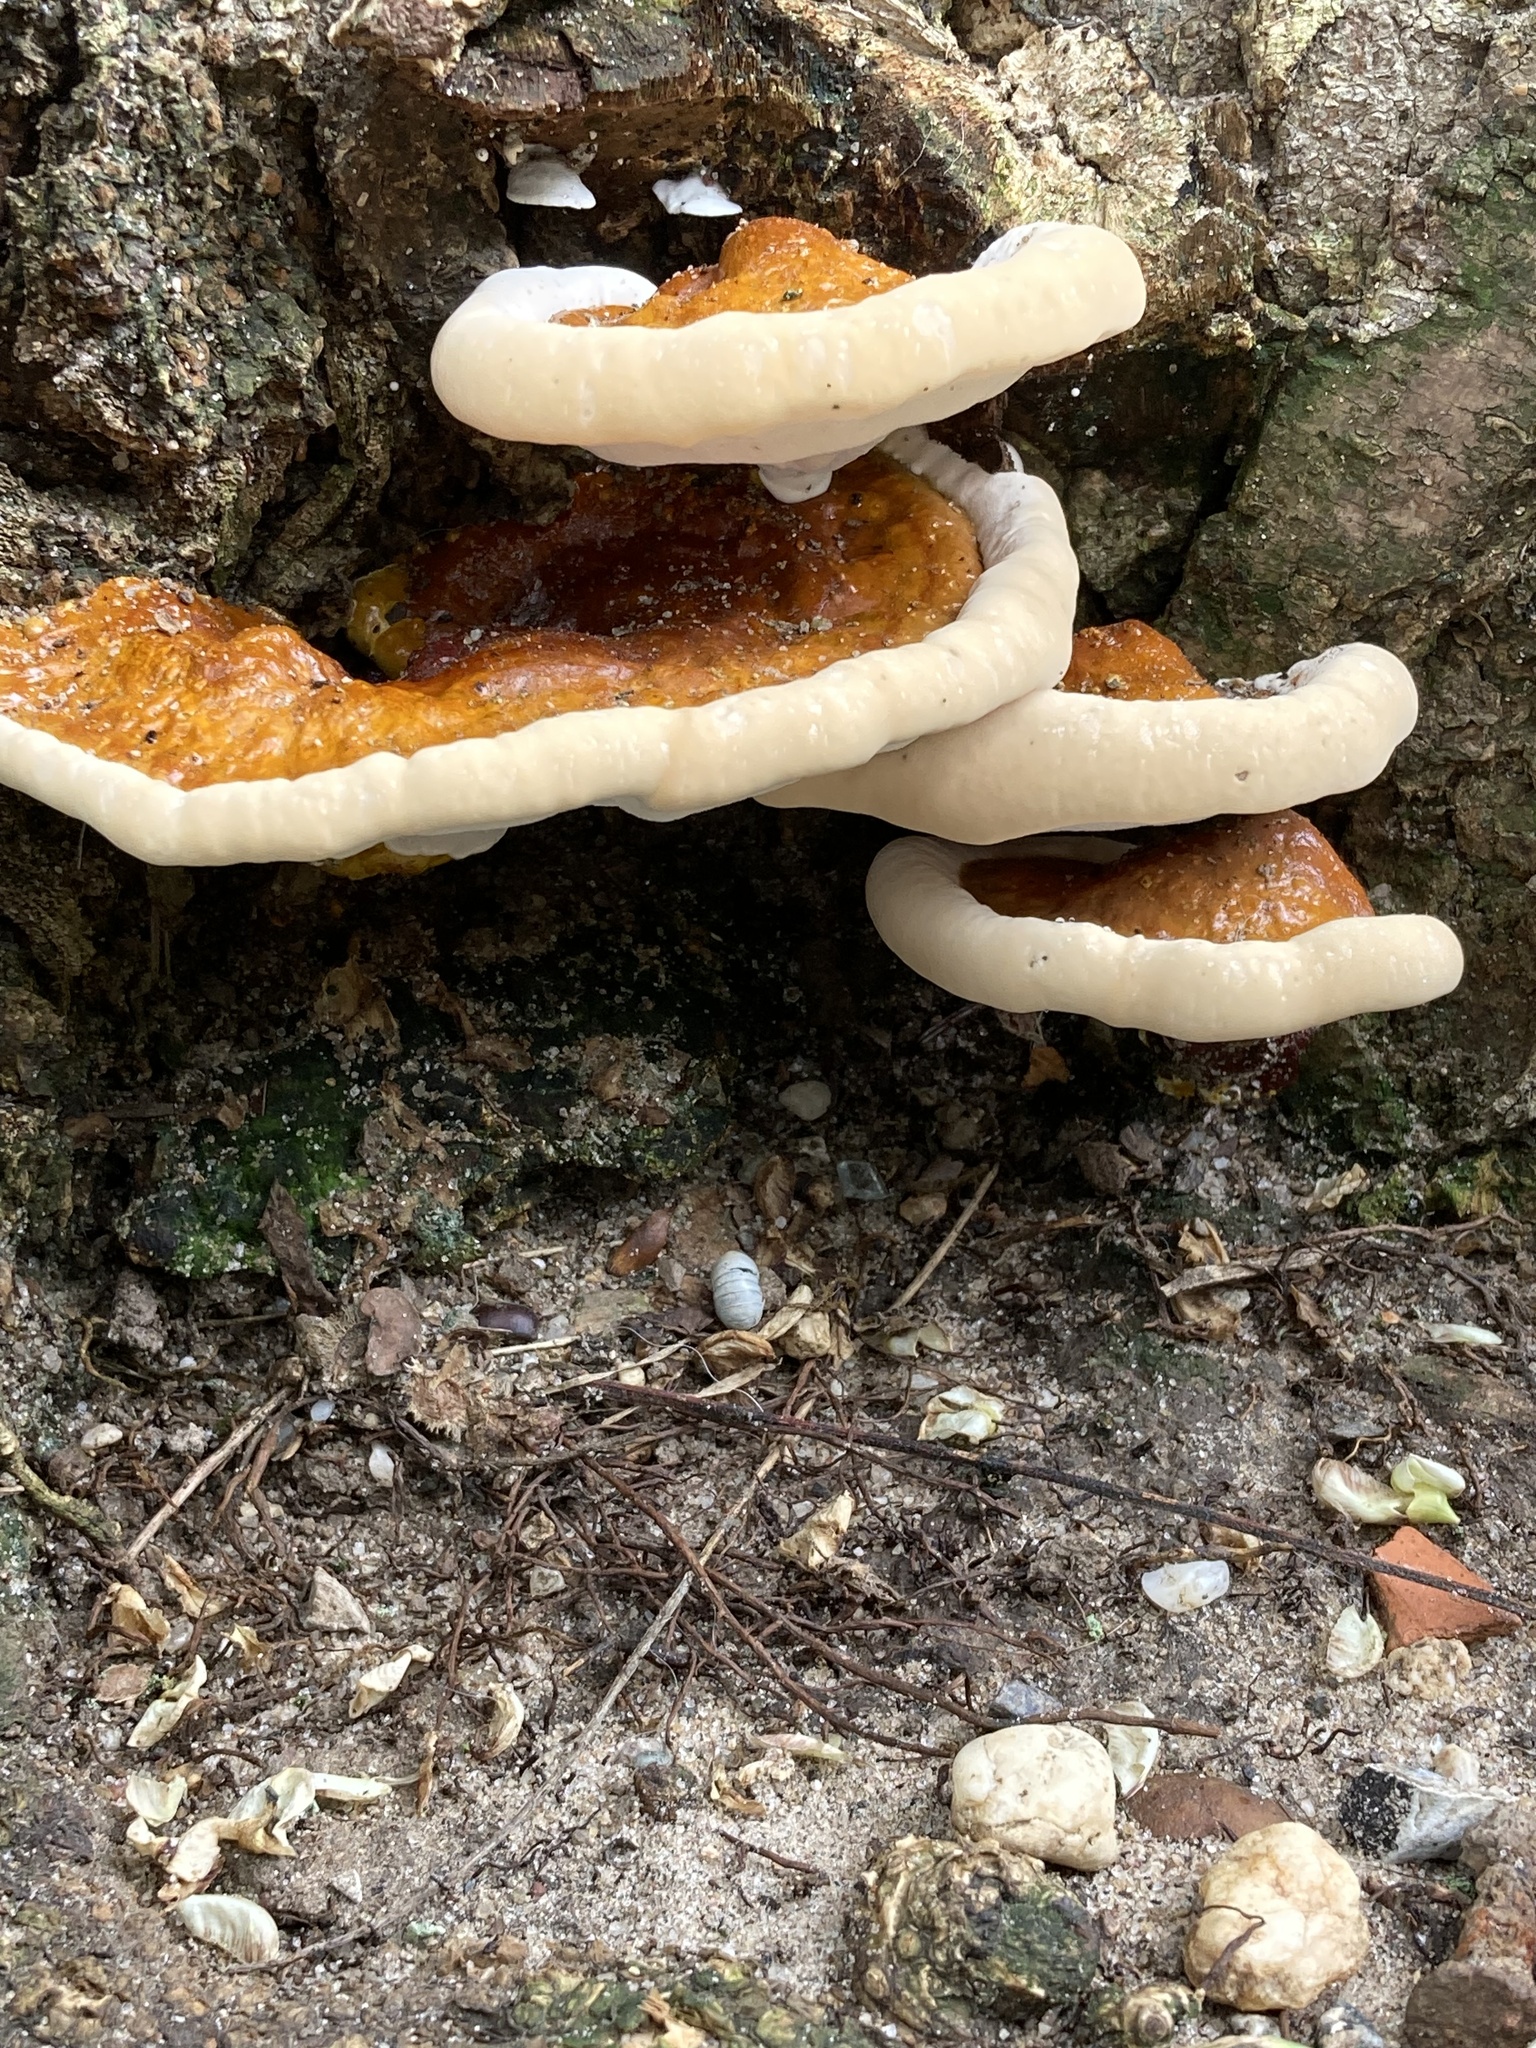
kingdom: Fungi
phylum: Basidiomycota
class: Agaricomycetes
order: Polyporales
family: Polyporaceae
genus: Ganoderma
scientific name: Ganoderma resinaceum
